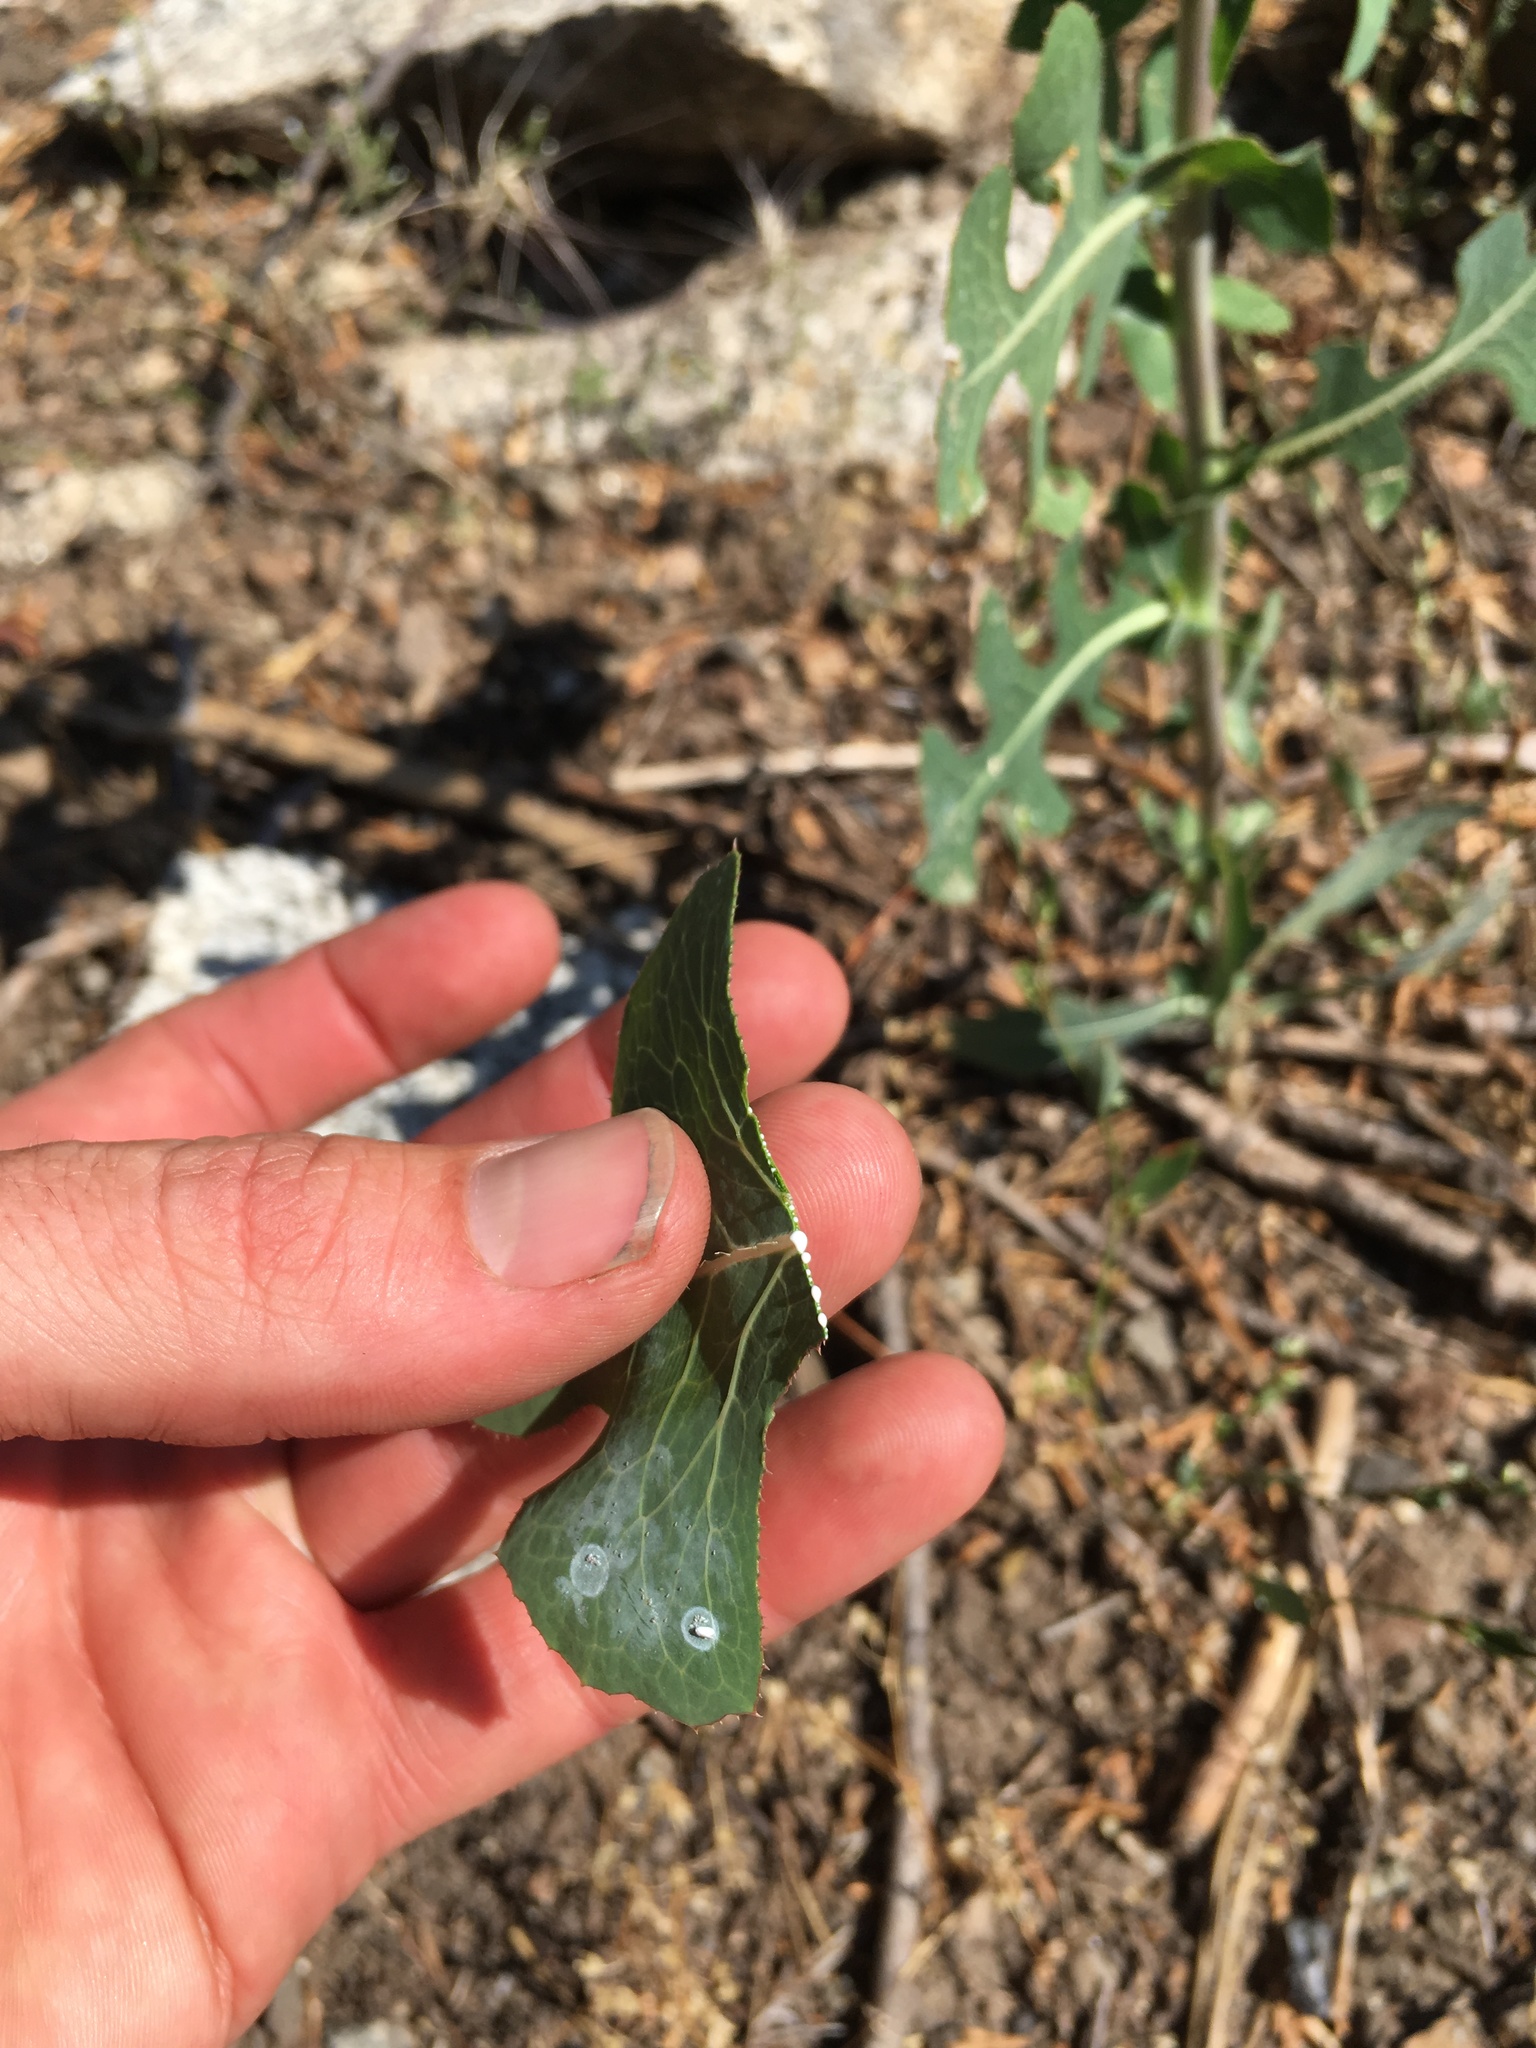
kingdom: Plantae
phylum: Tracheophyta
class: Magnoliopsida
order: Asterales
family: Asteraceae
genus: Lactuca
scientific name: Lactuca serriola
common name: Prickly lettuce
